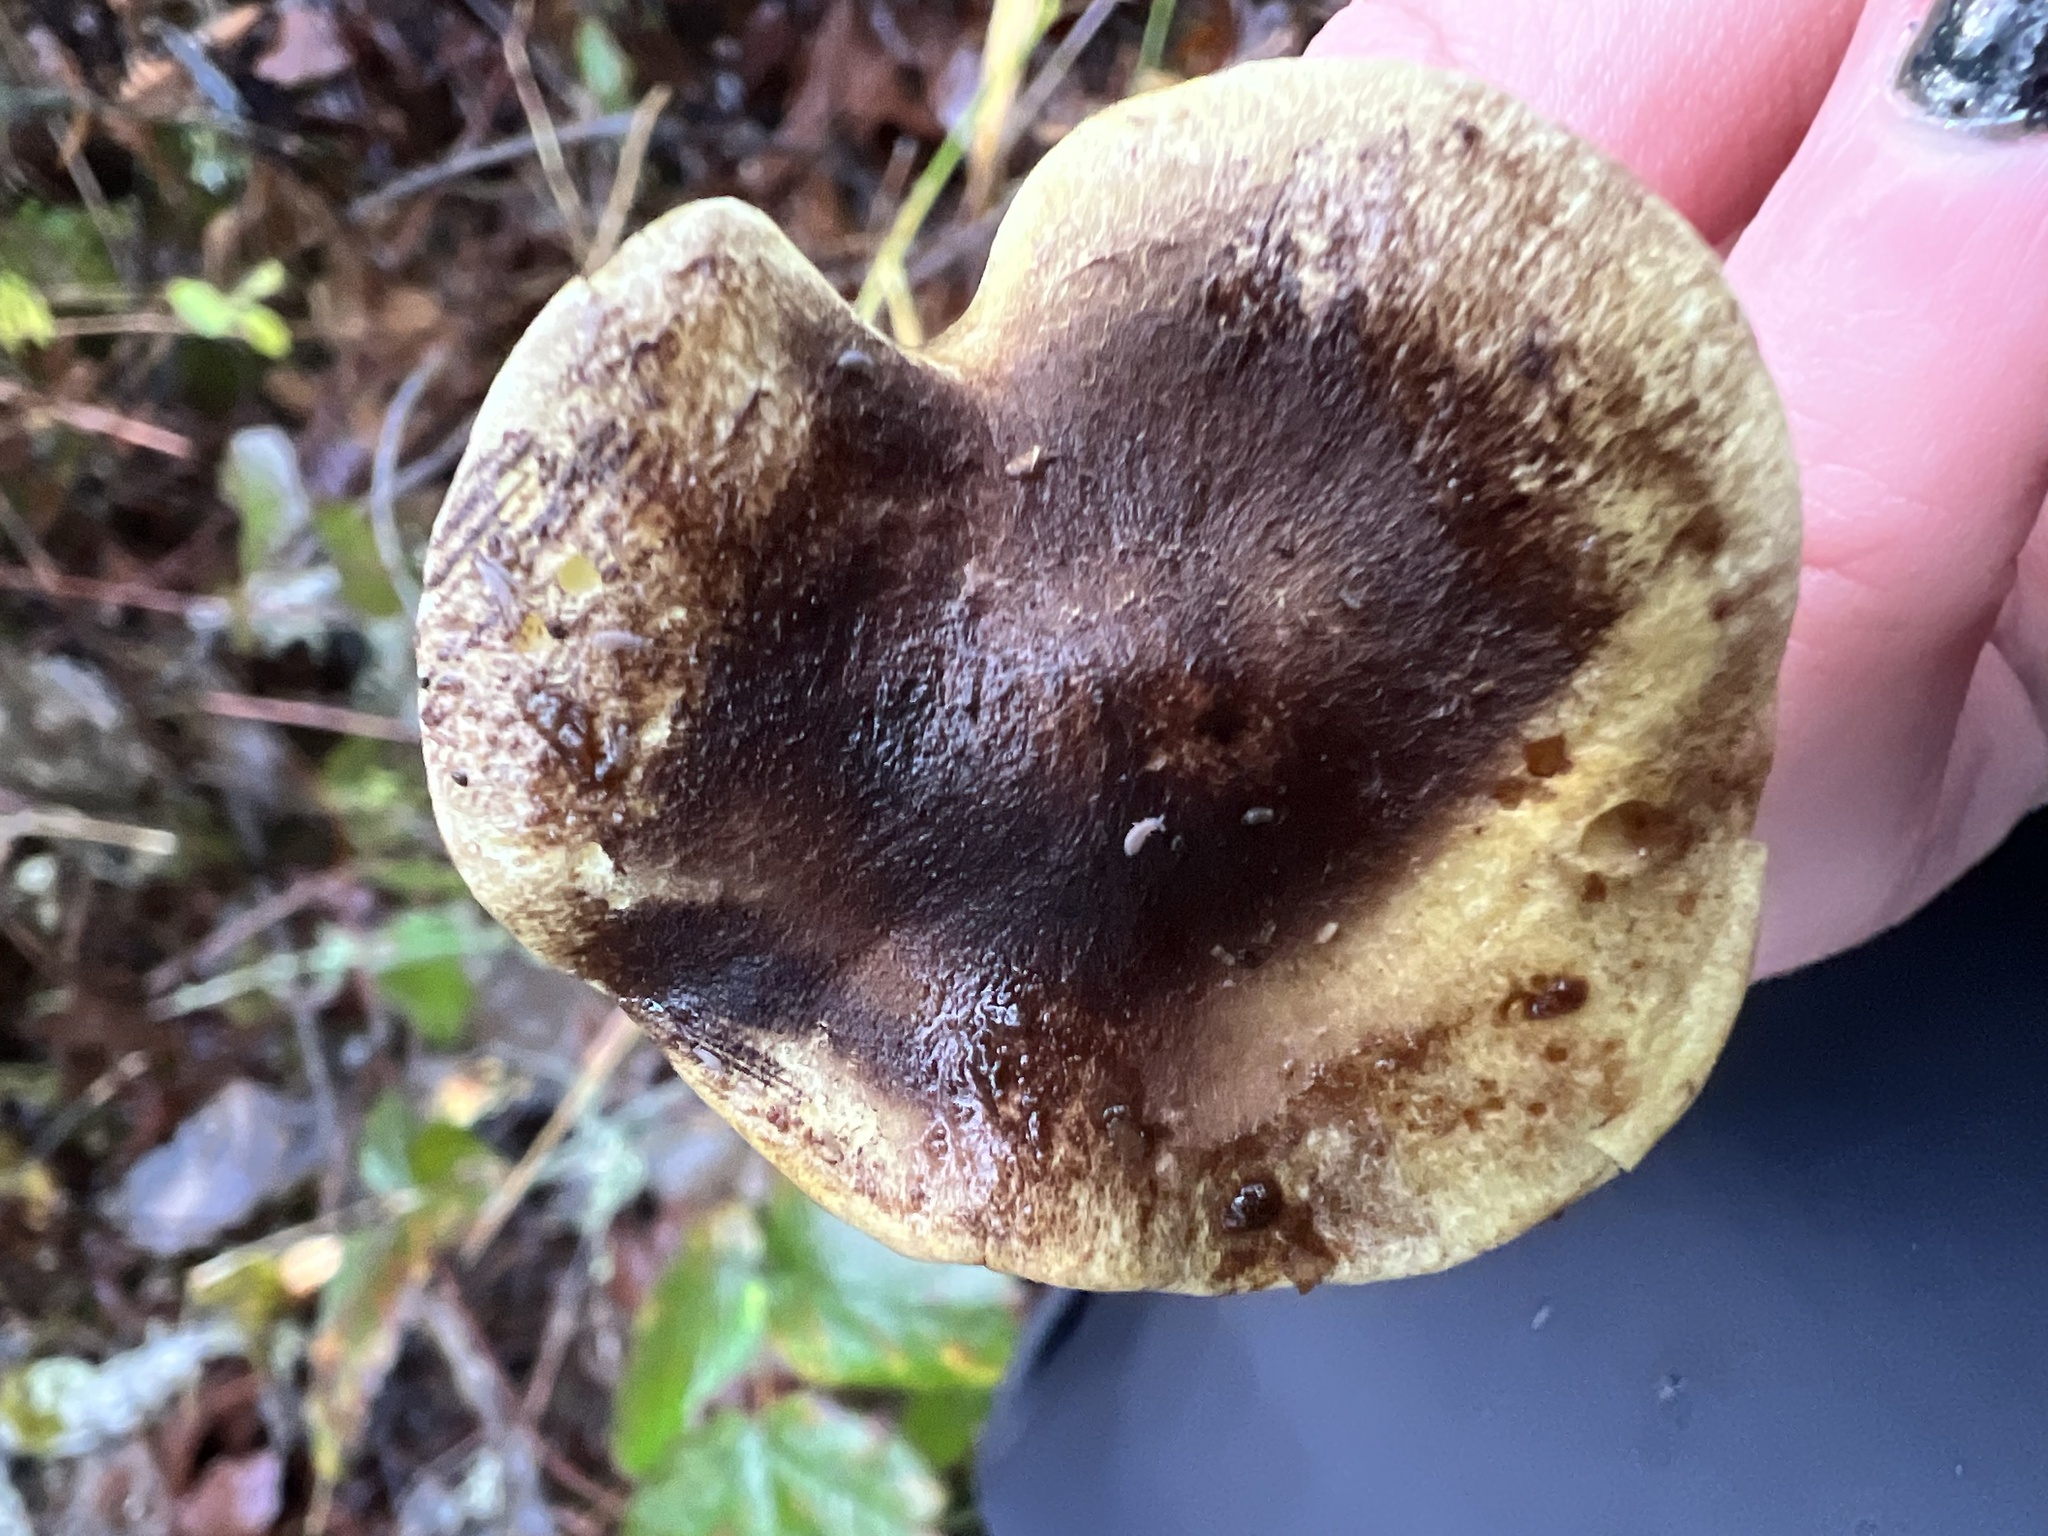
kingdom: Fungi
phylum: Basidiomycota
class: Agaricomycetes
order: Agaricales
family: Strophariaceae
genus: Hypholoma
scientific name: Hypholoma fasciculare
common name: Sulphur tuft
